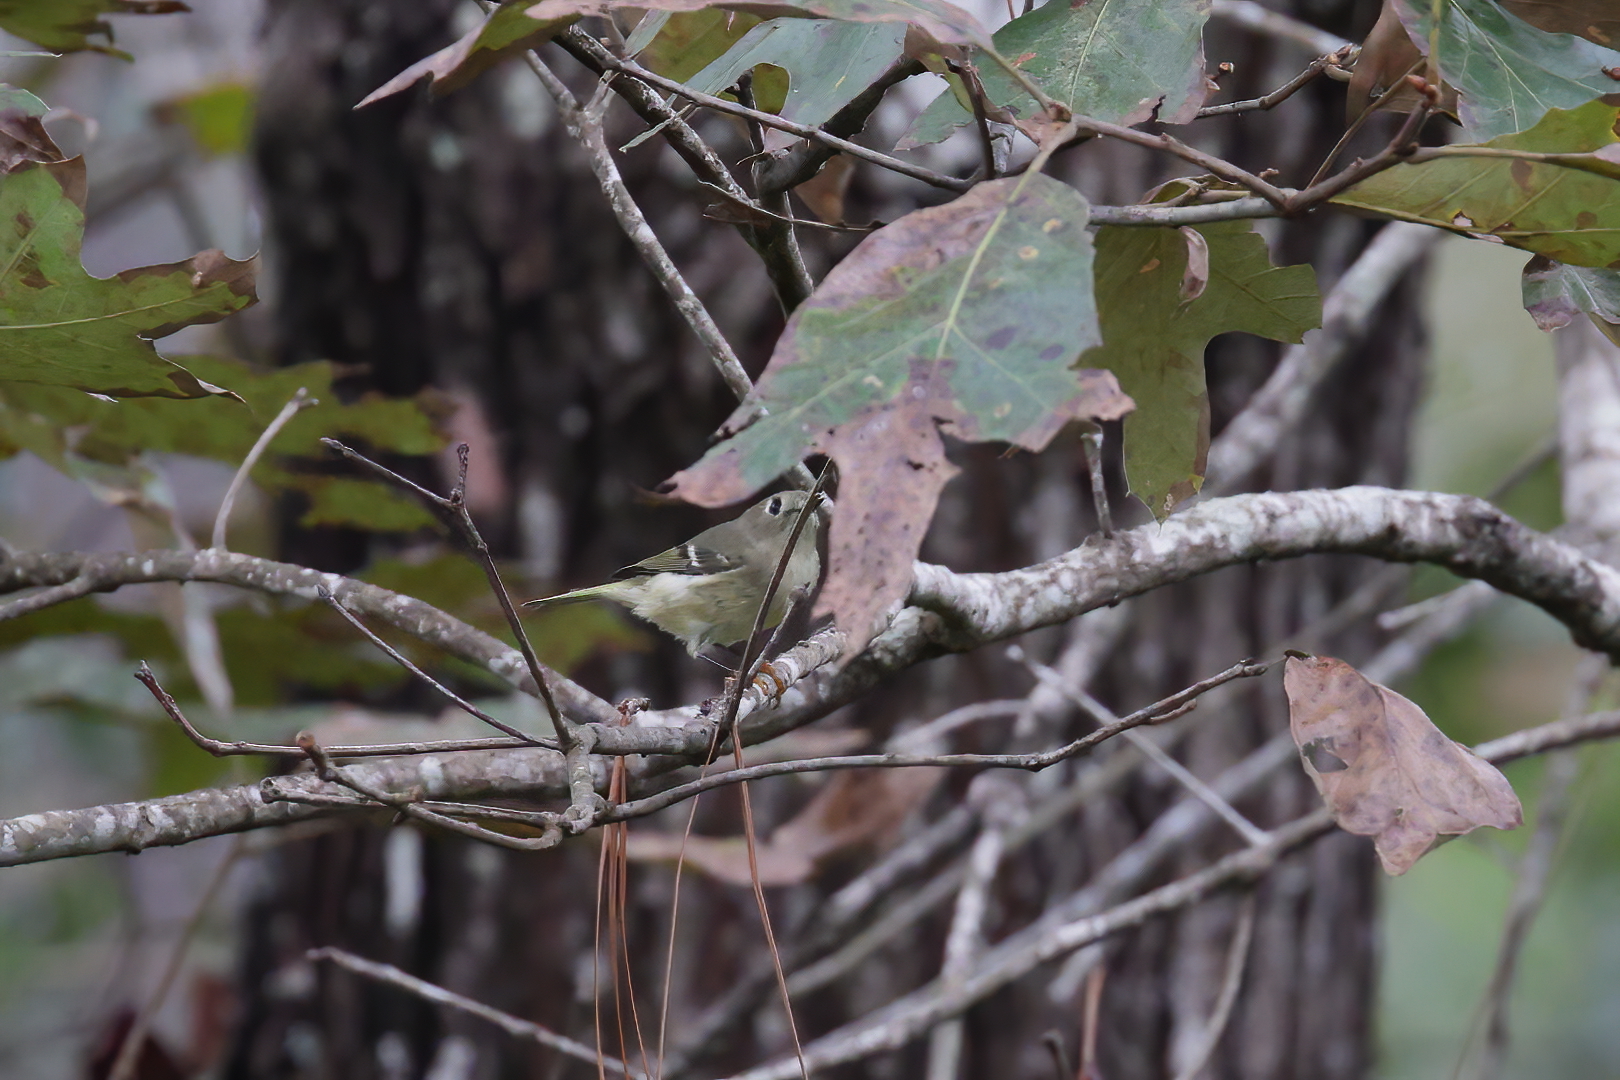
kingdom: Animalia
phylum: Chordata
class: Aves
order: Passeriformes
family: Regulidae
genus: Regulus
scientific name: Regulus calendula
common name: Ruby-crowned kinglet
